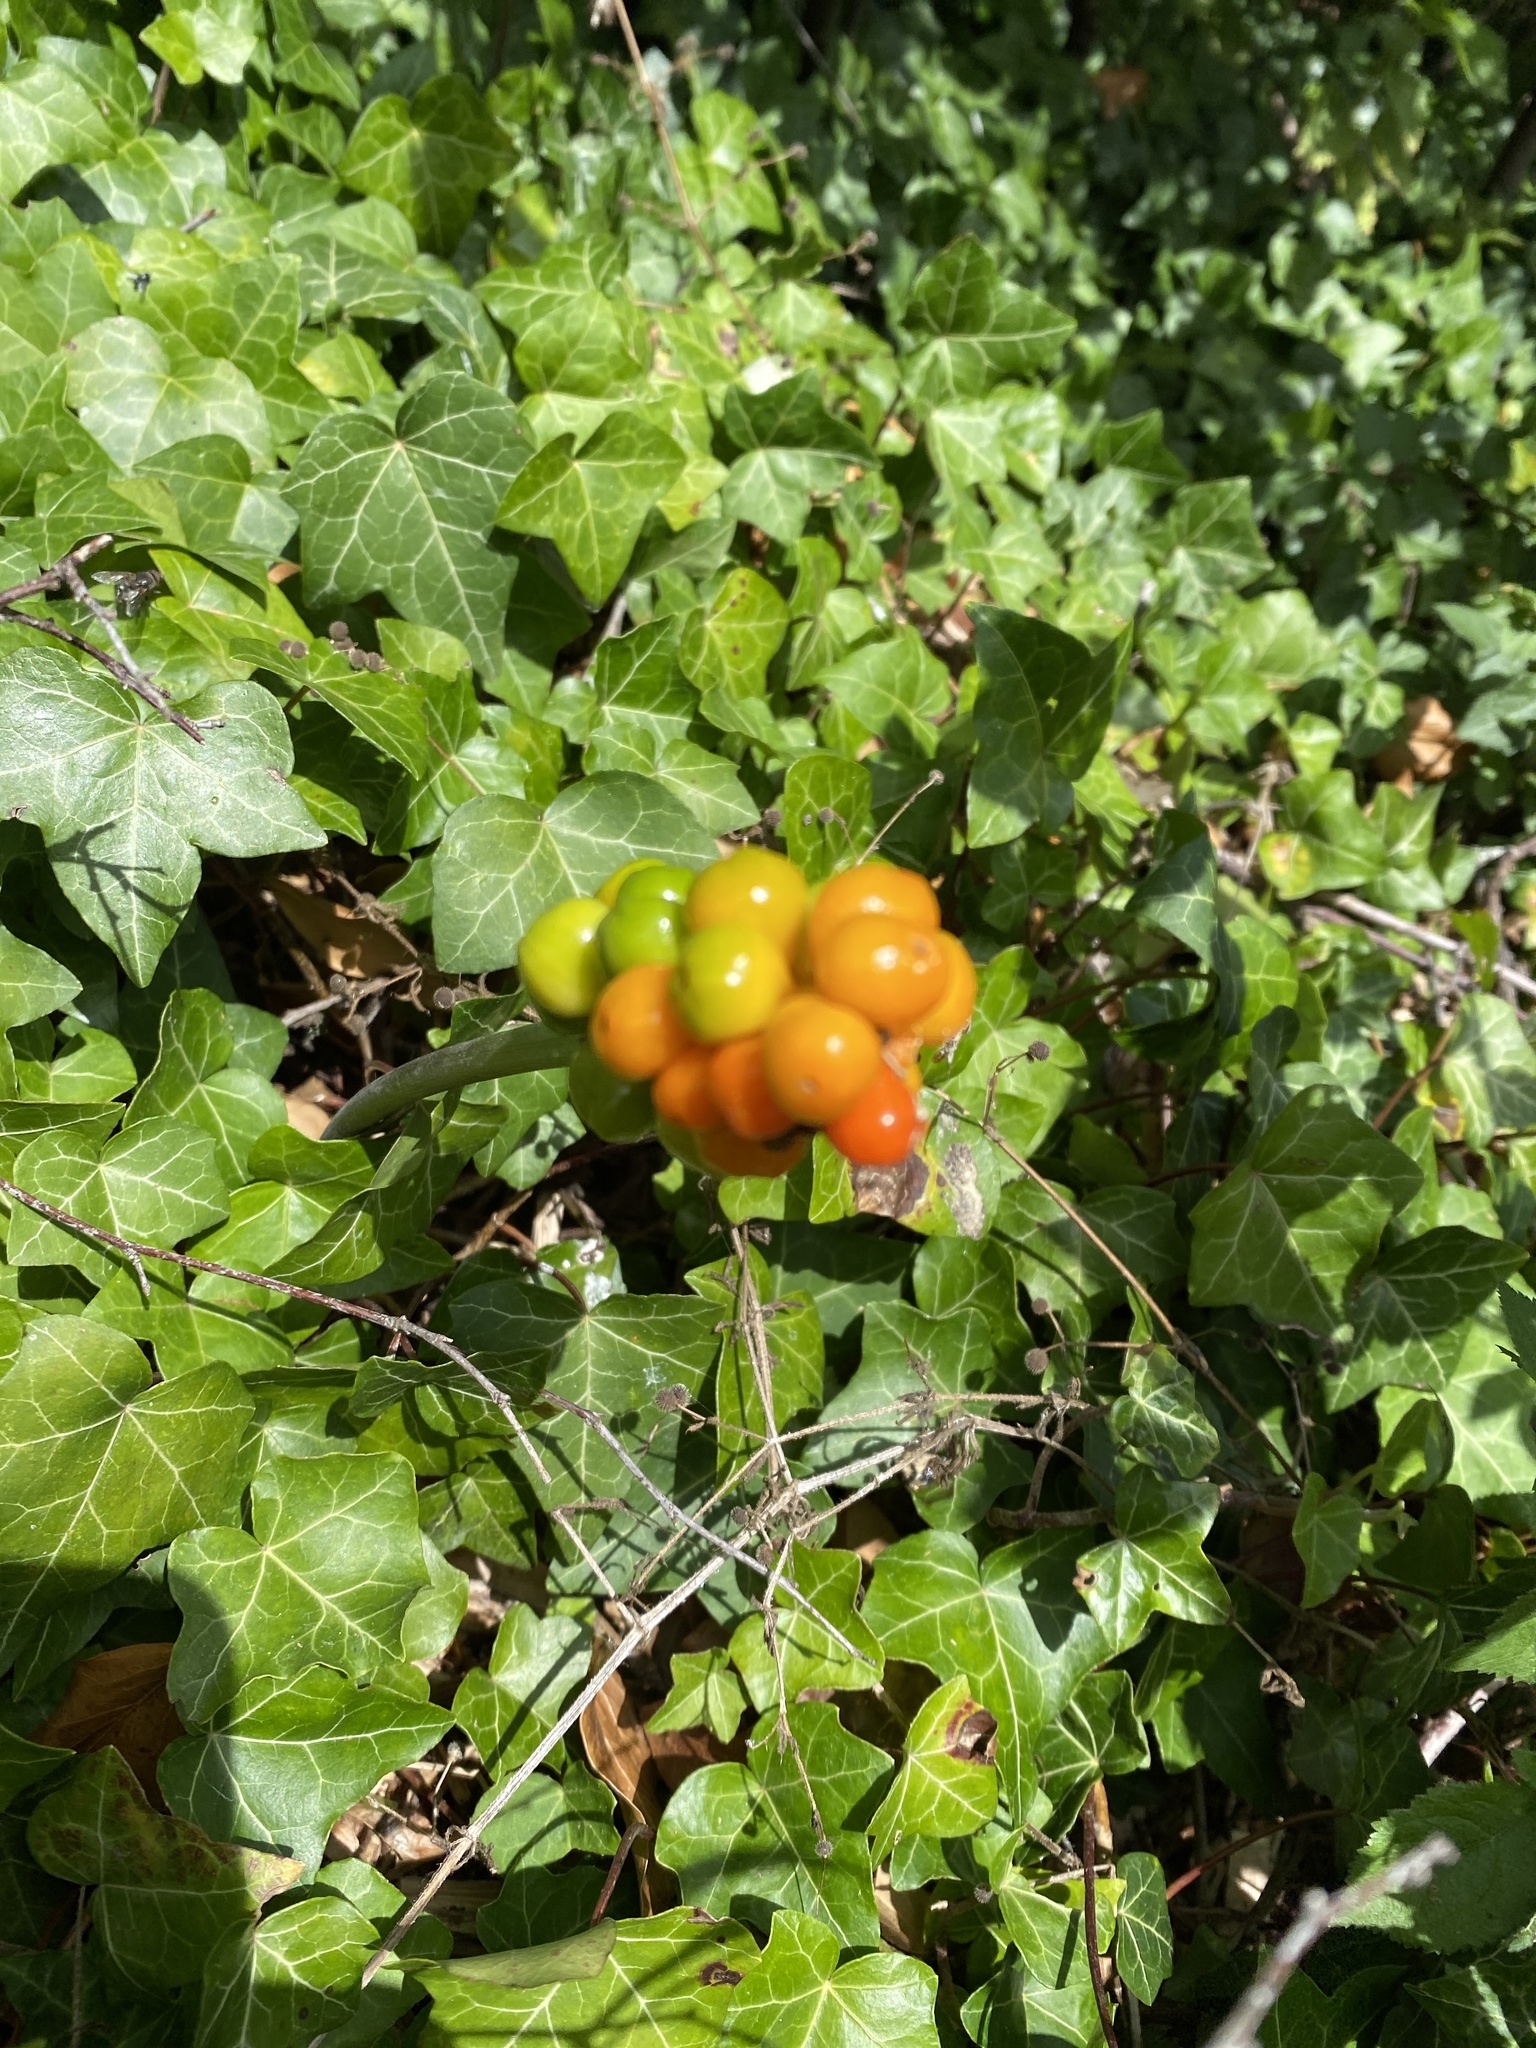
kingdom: Plantae
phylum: Tracheophyta
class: Liliopsida
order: Alismatales
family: Araceae
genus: Arum
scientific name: Arum maculatum
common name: Lords-and-ladies
